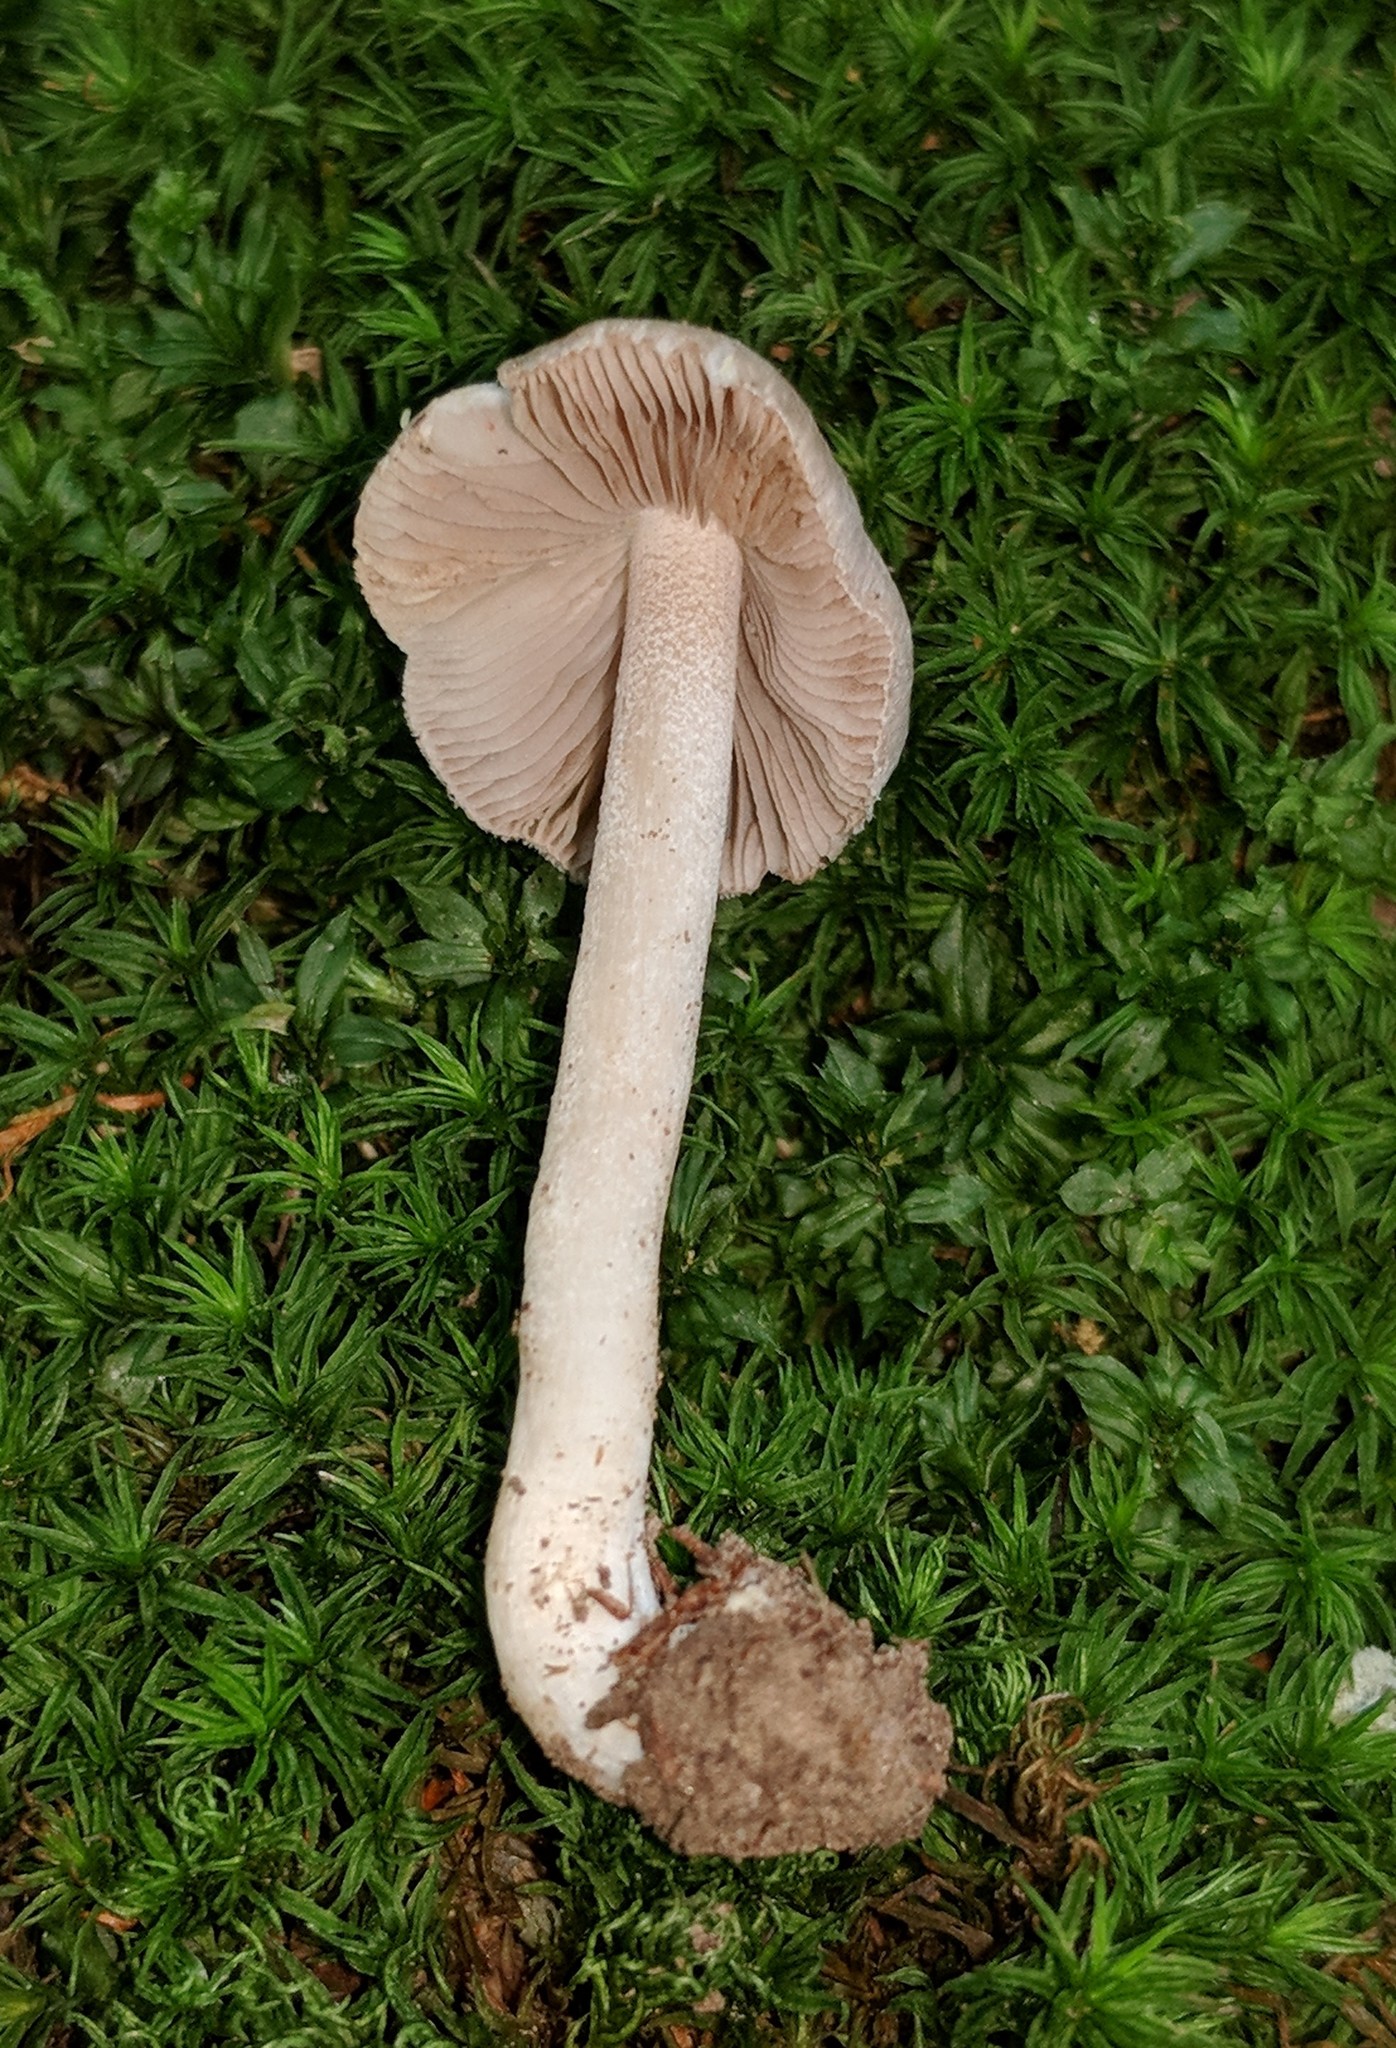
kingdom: Fungi
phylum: Basidiomycota
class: Agaricomycetes
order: Agaricales
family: Inocybaceae
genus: Inocybe
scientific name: Inocybe albodisca
